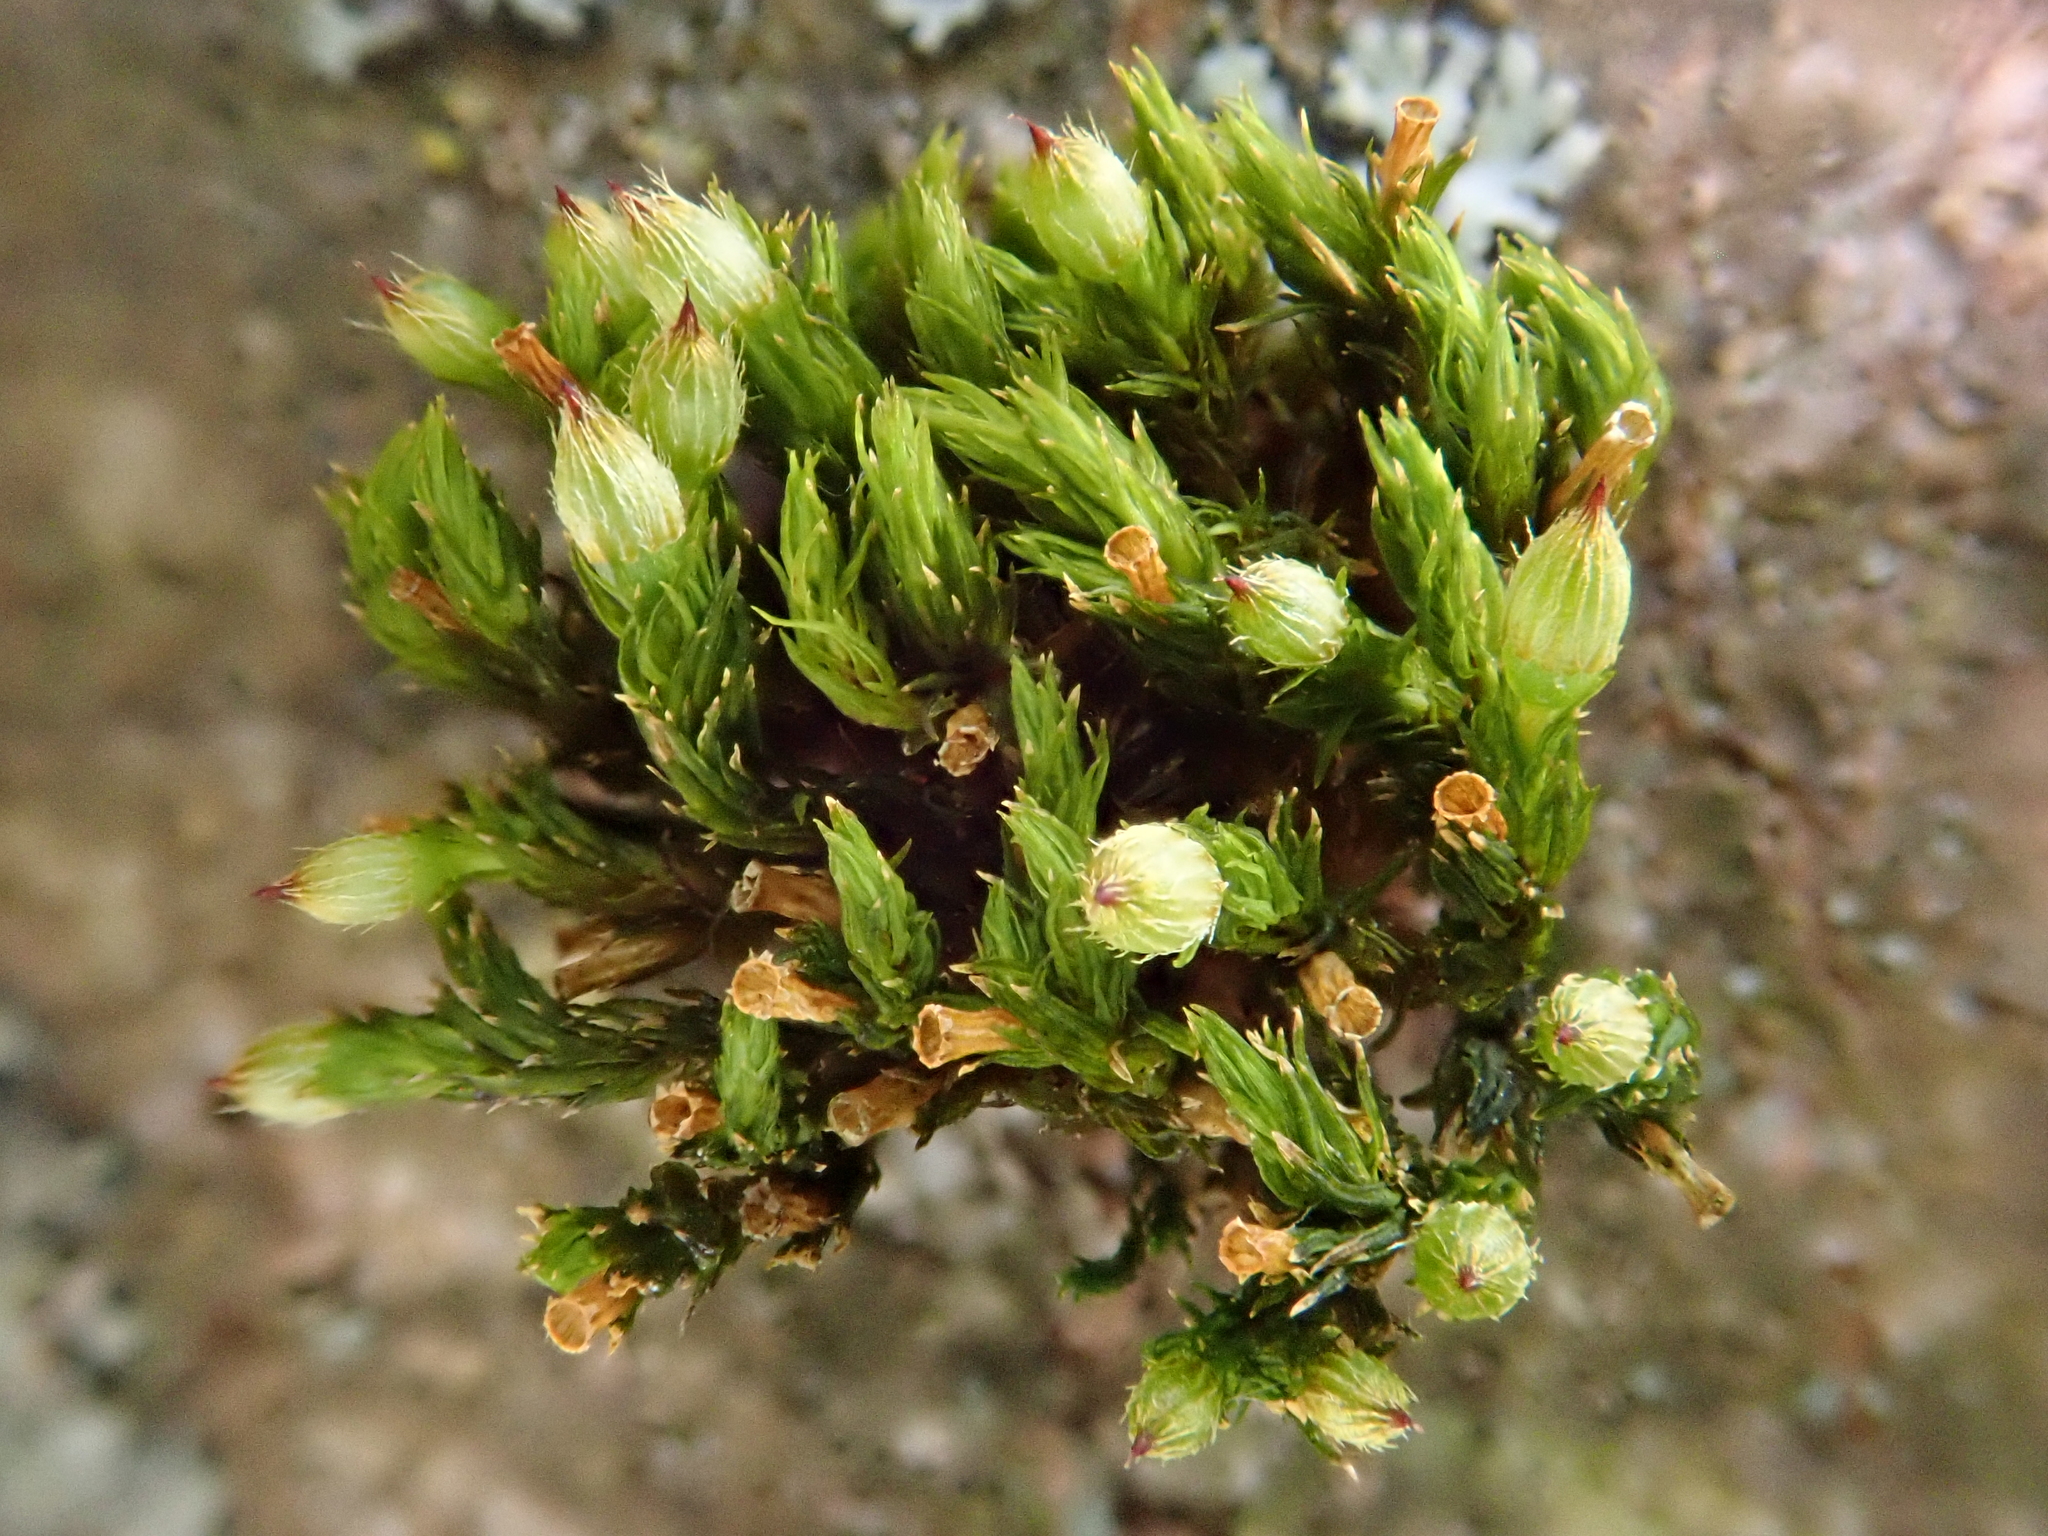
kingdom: Plantae
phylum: Bryophyta
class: Bryopsida
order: Orthotrichales
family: Orthotrichaceae
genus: Orthotrichum
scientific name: Orthotrichum patens
